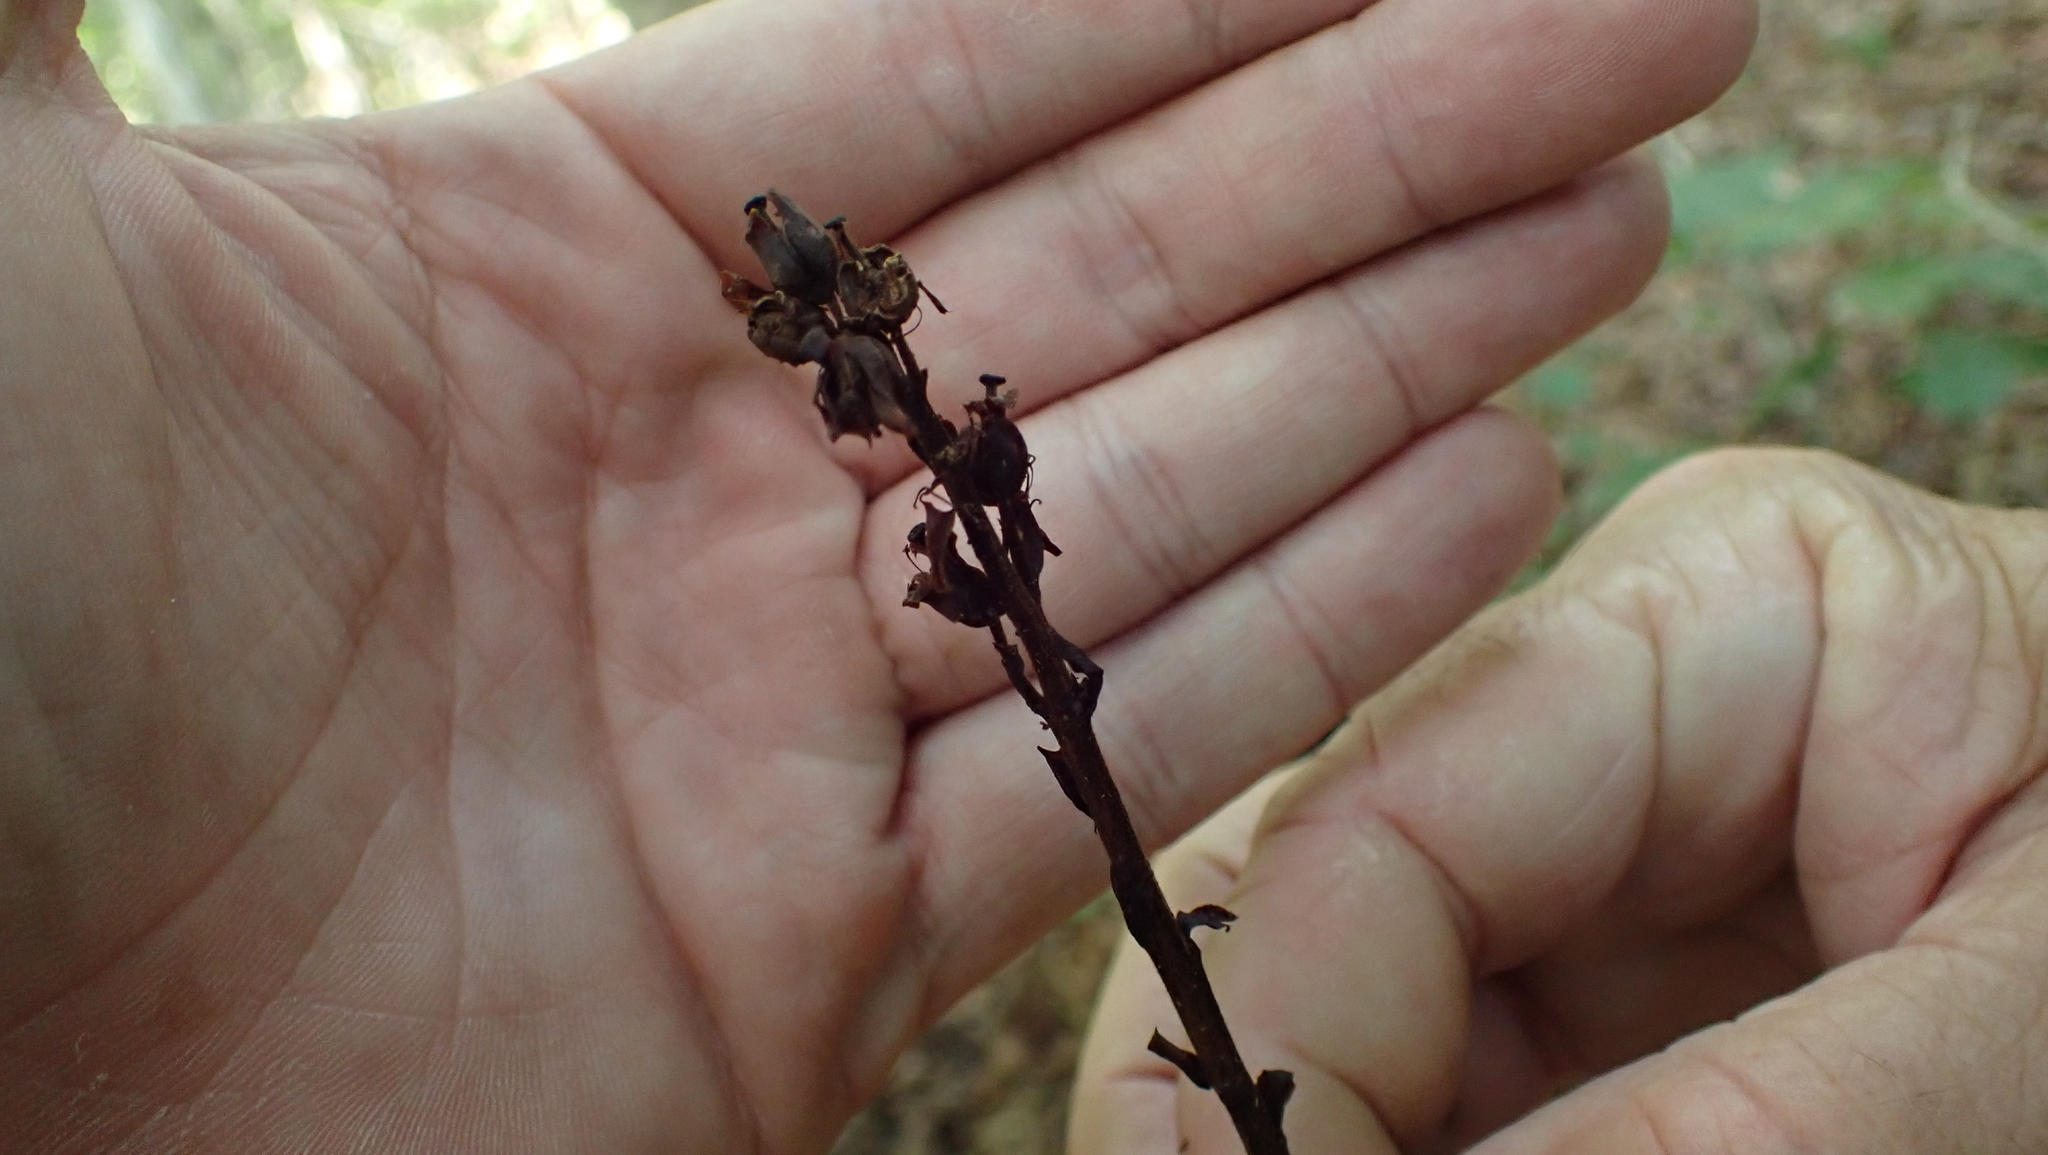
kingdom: Plantae
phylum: Tracheophyta
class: Magnoliopsida
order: Ericales
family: Ericaceae
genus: Hypopitys
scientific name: Hypopitys monotropa
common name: Yellow bird's-nest
